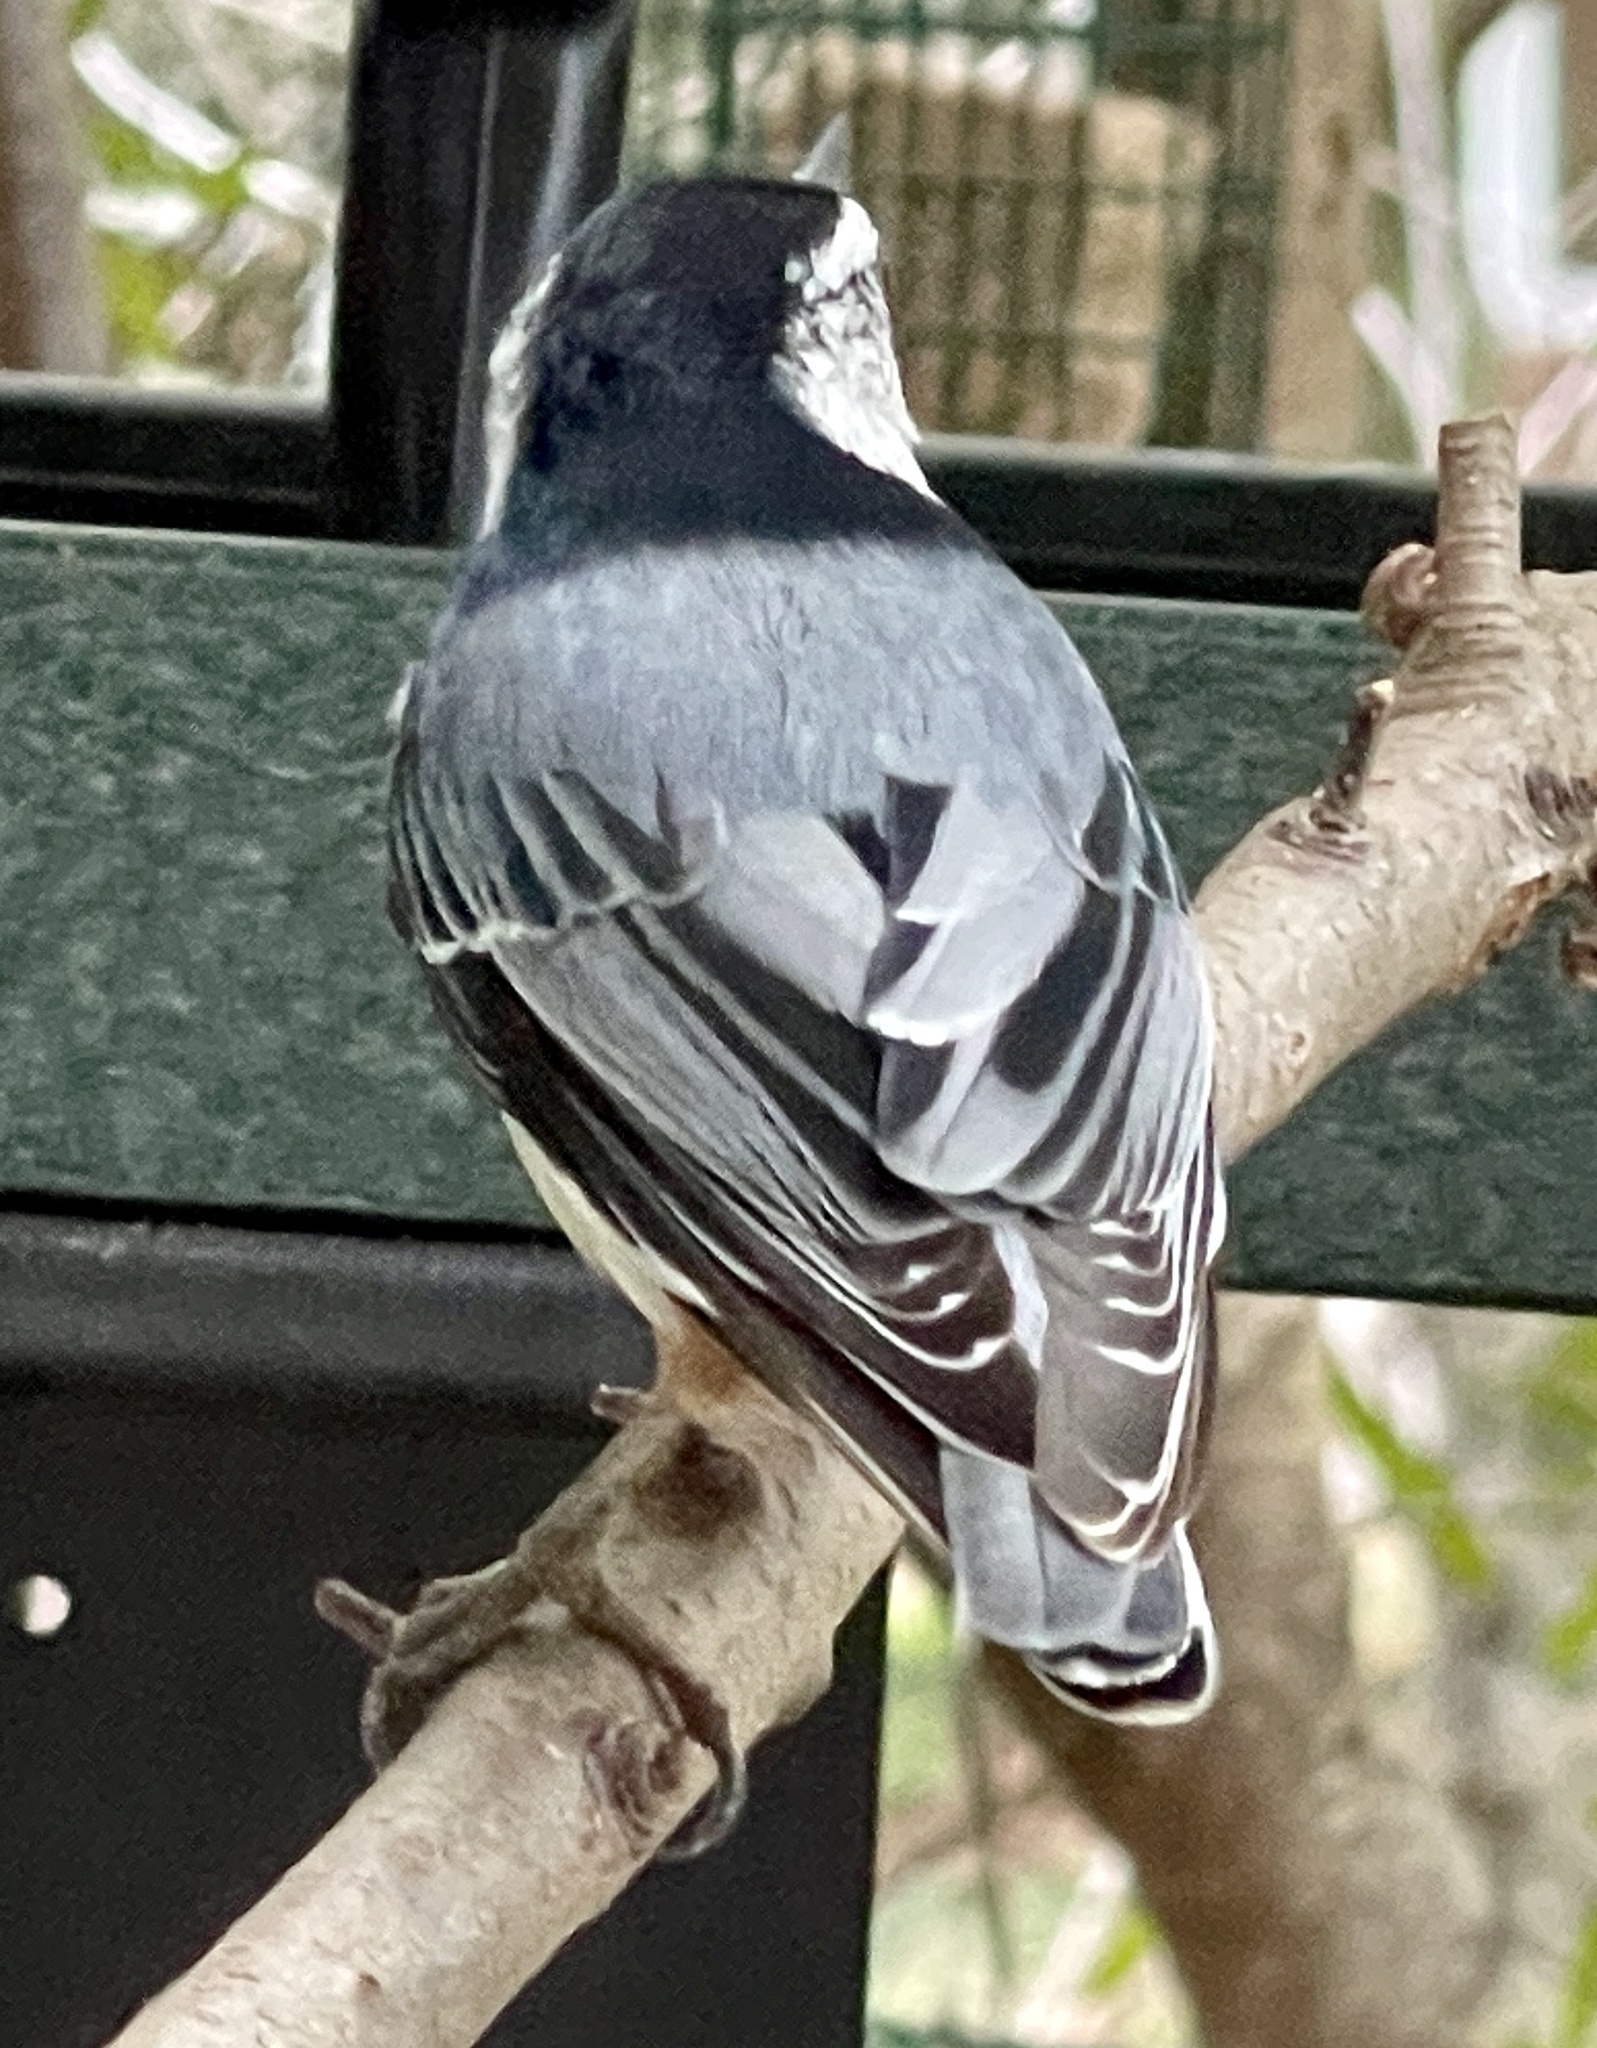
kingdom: Animalia
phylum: Chordata
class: Aves
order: Passeriformes
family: Sittidae
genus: Sitta
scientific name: Sitta carolinensis
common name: White-breasted nuthatch
